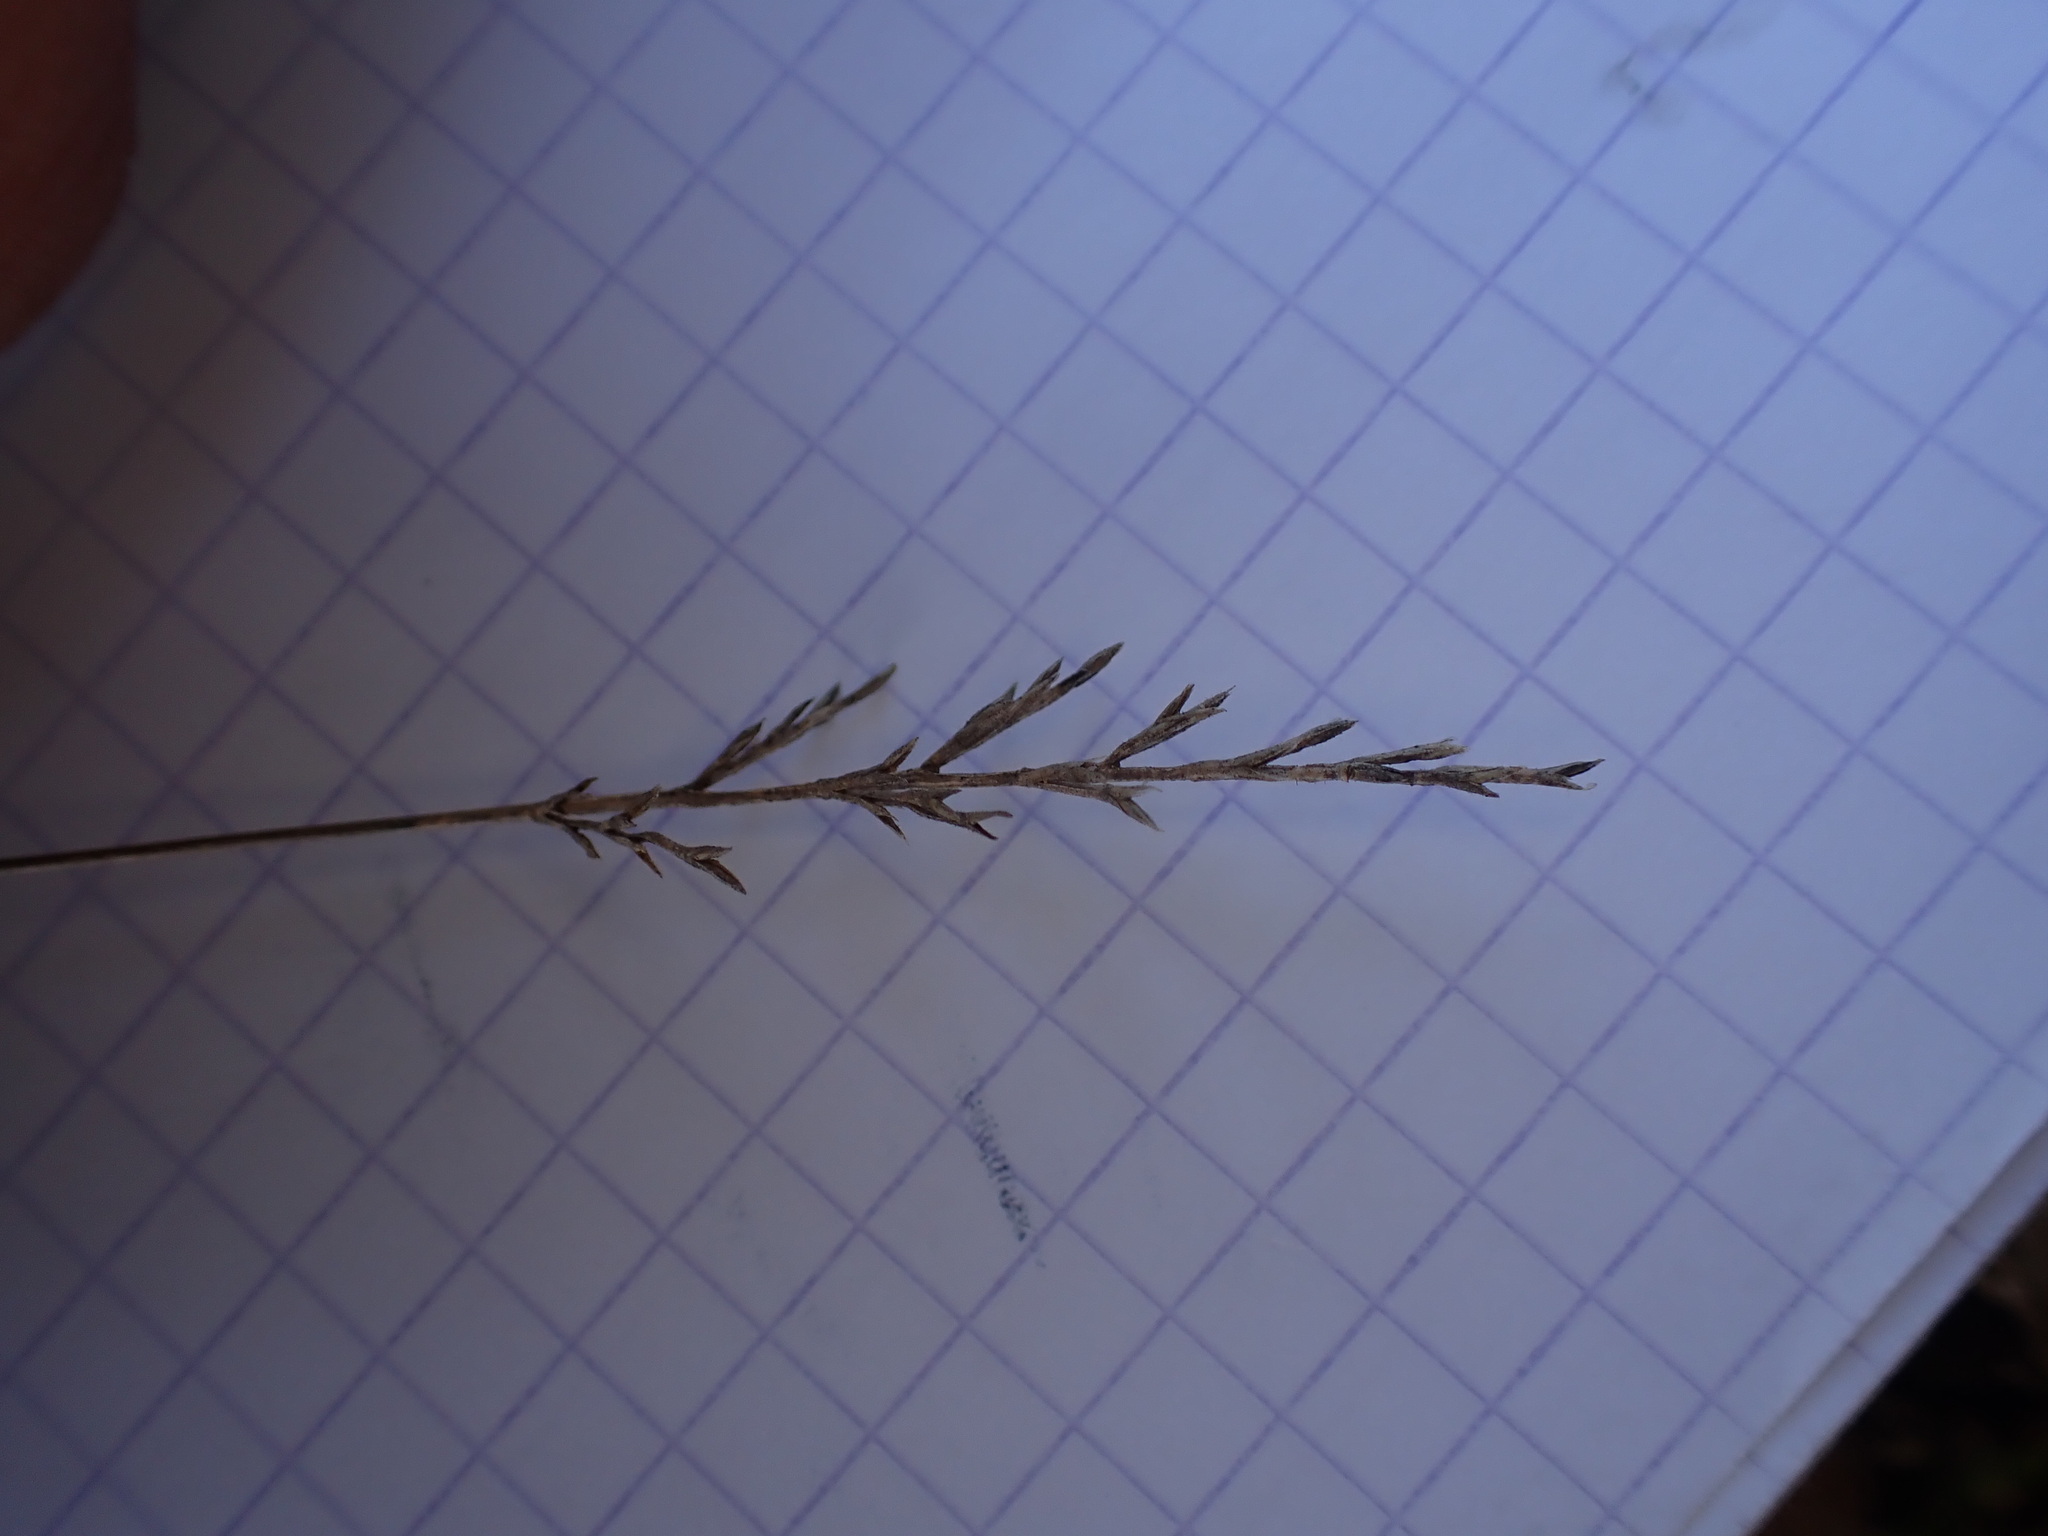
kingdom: Plantae
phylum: Tracheophyta
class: Liliopsida
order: Poales
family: Poaceae
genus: Catapodium
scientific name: Catapodium rigidum
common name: Fern-grass
